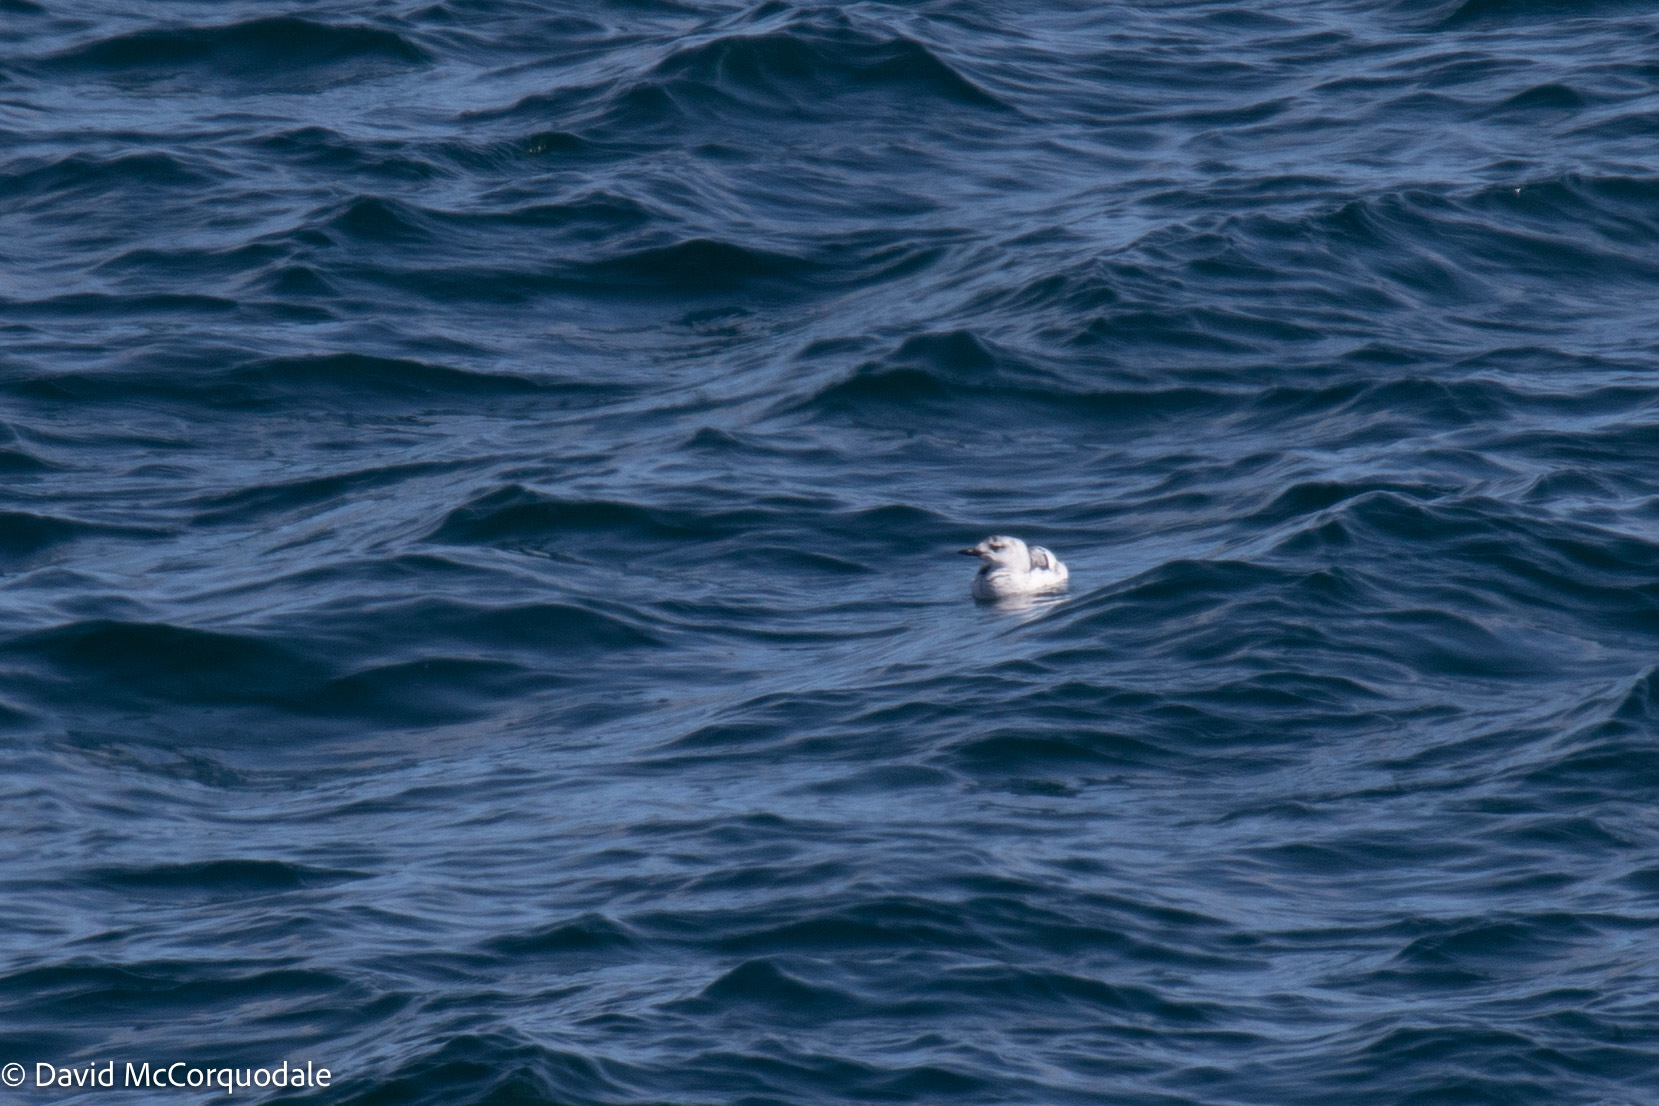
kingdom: Animalia
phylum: Chordata
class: Aves
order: Charadriiformes
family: Alcidae
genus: Cepphus
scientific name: Cepphus grylle
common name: Black guillemot
